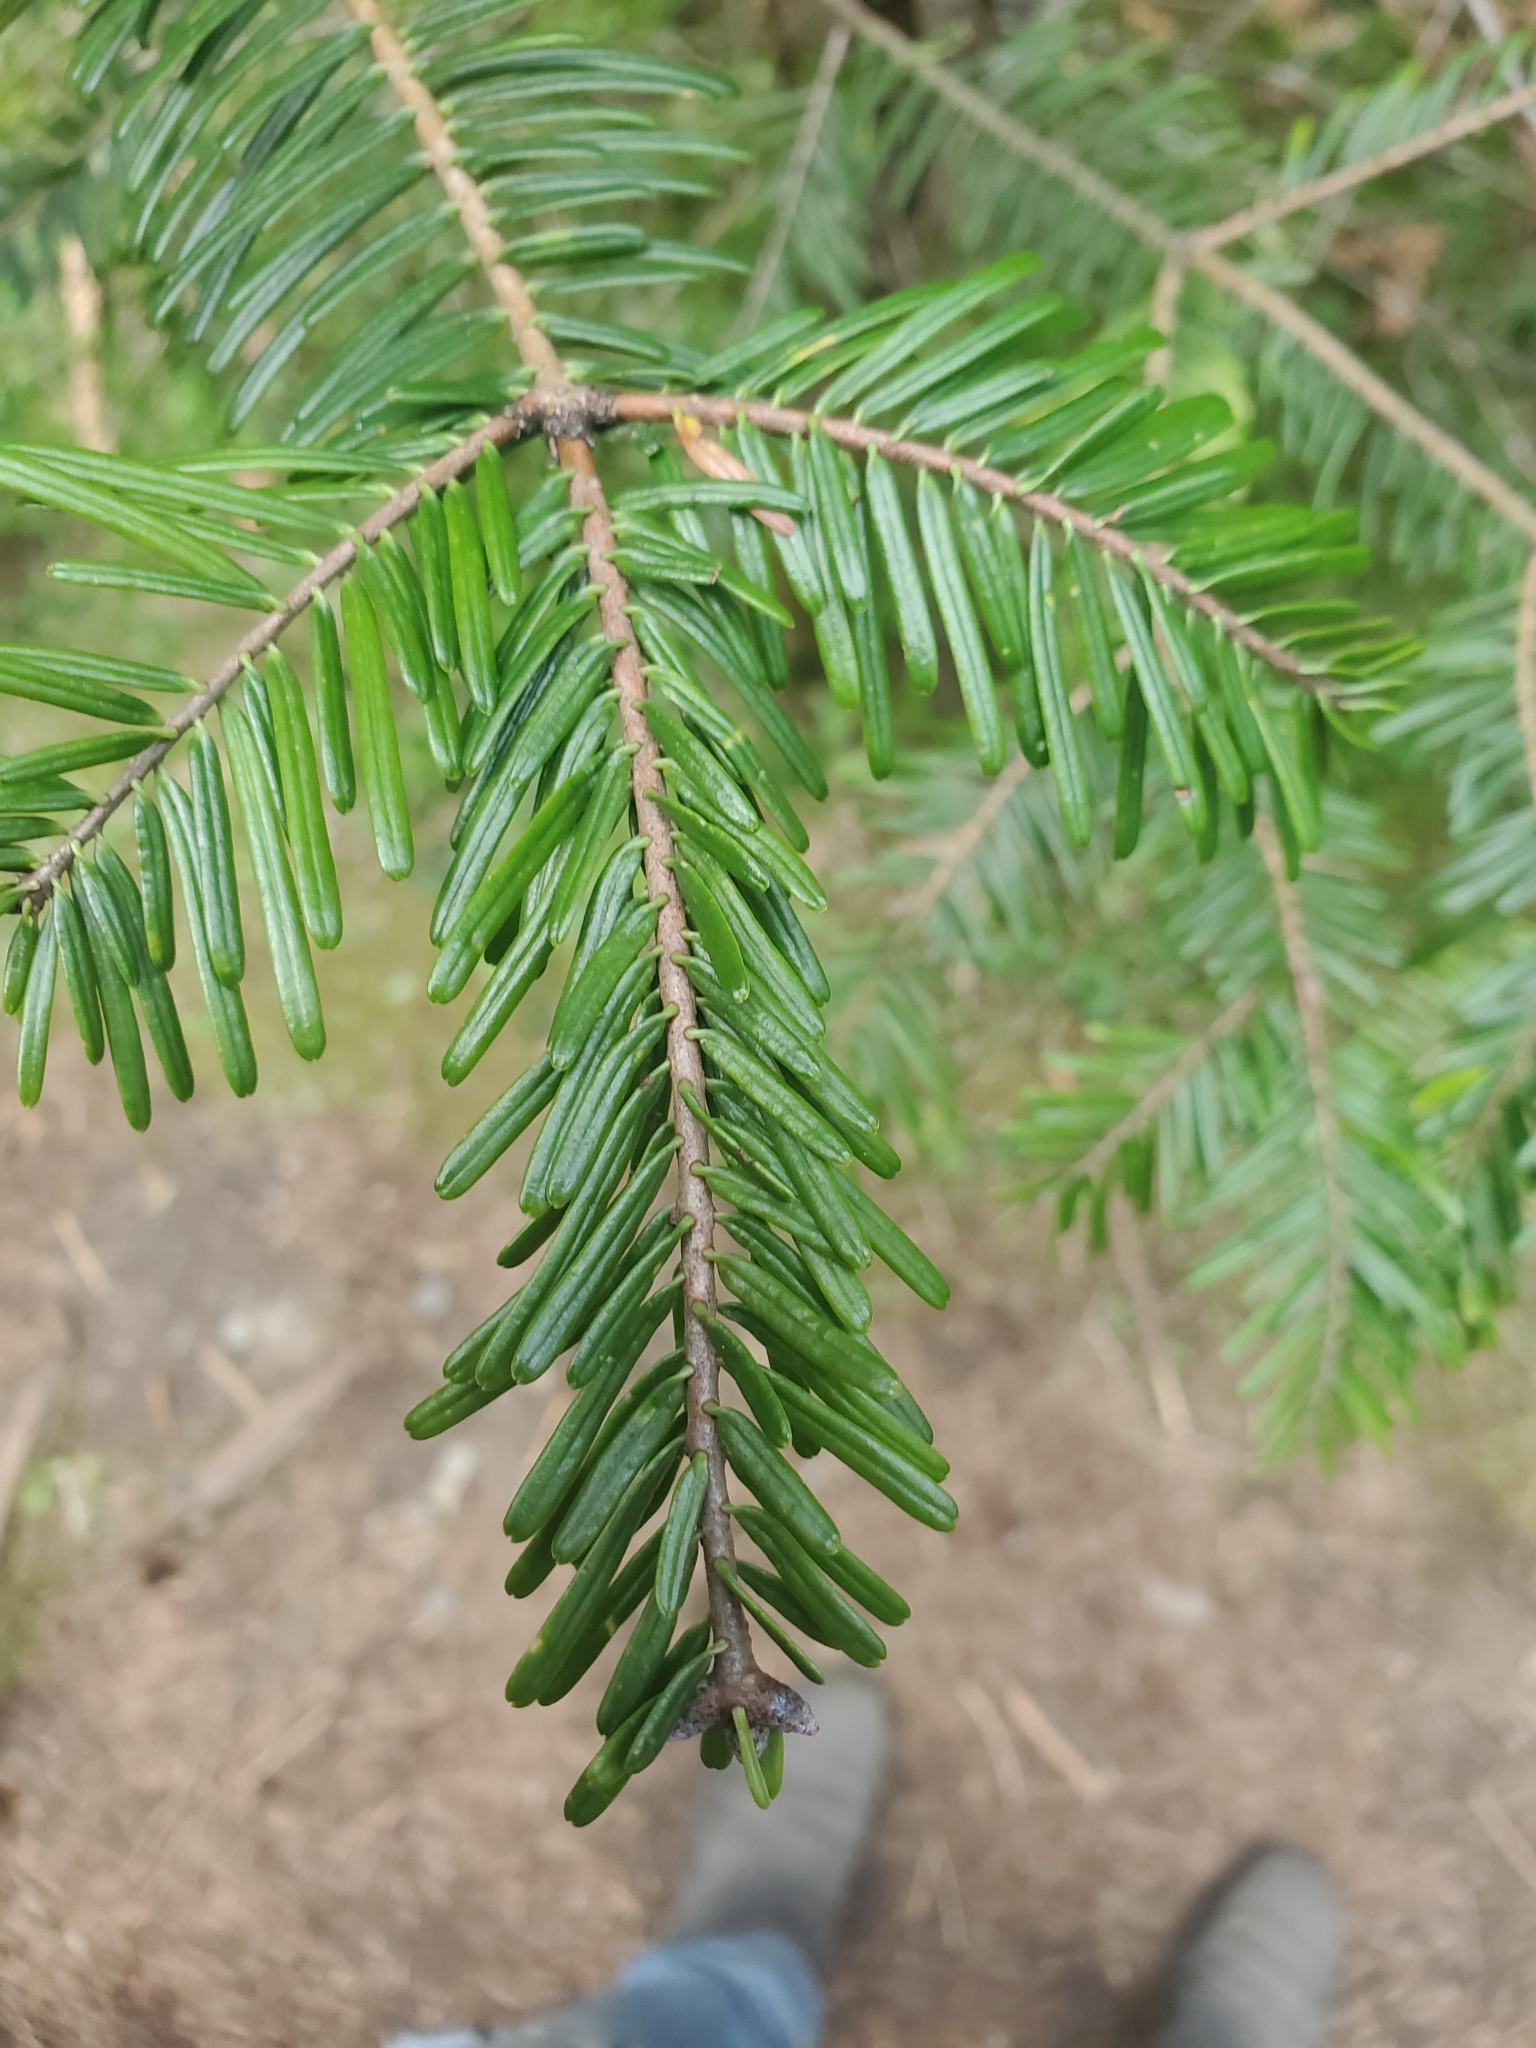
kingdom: Plantae
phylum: Tracheophyta
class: Pinopsida
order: Pinales
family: Pinaceae
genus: Abies
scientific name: Abies grandis
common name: Giant fir
